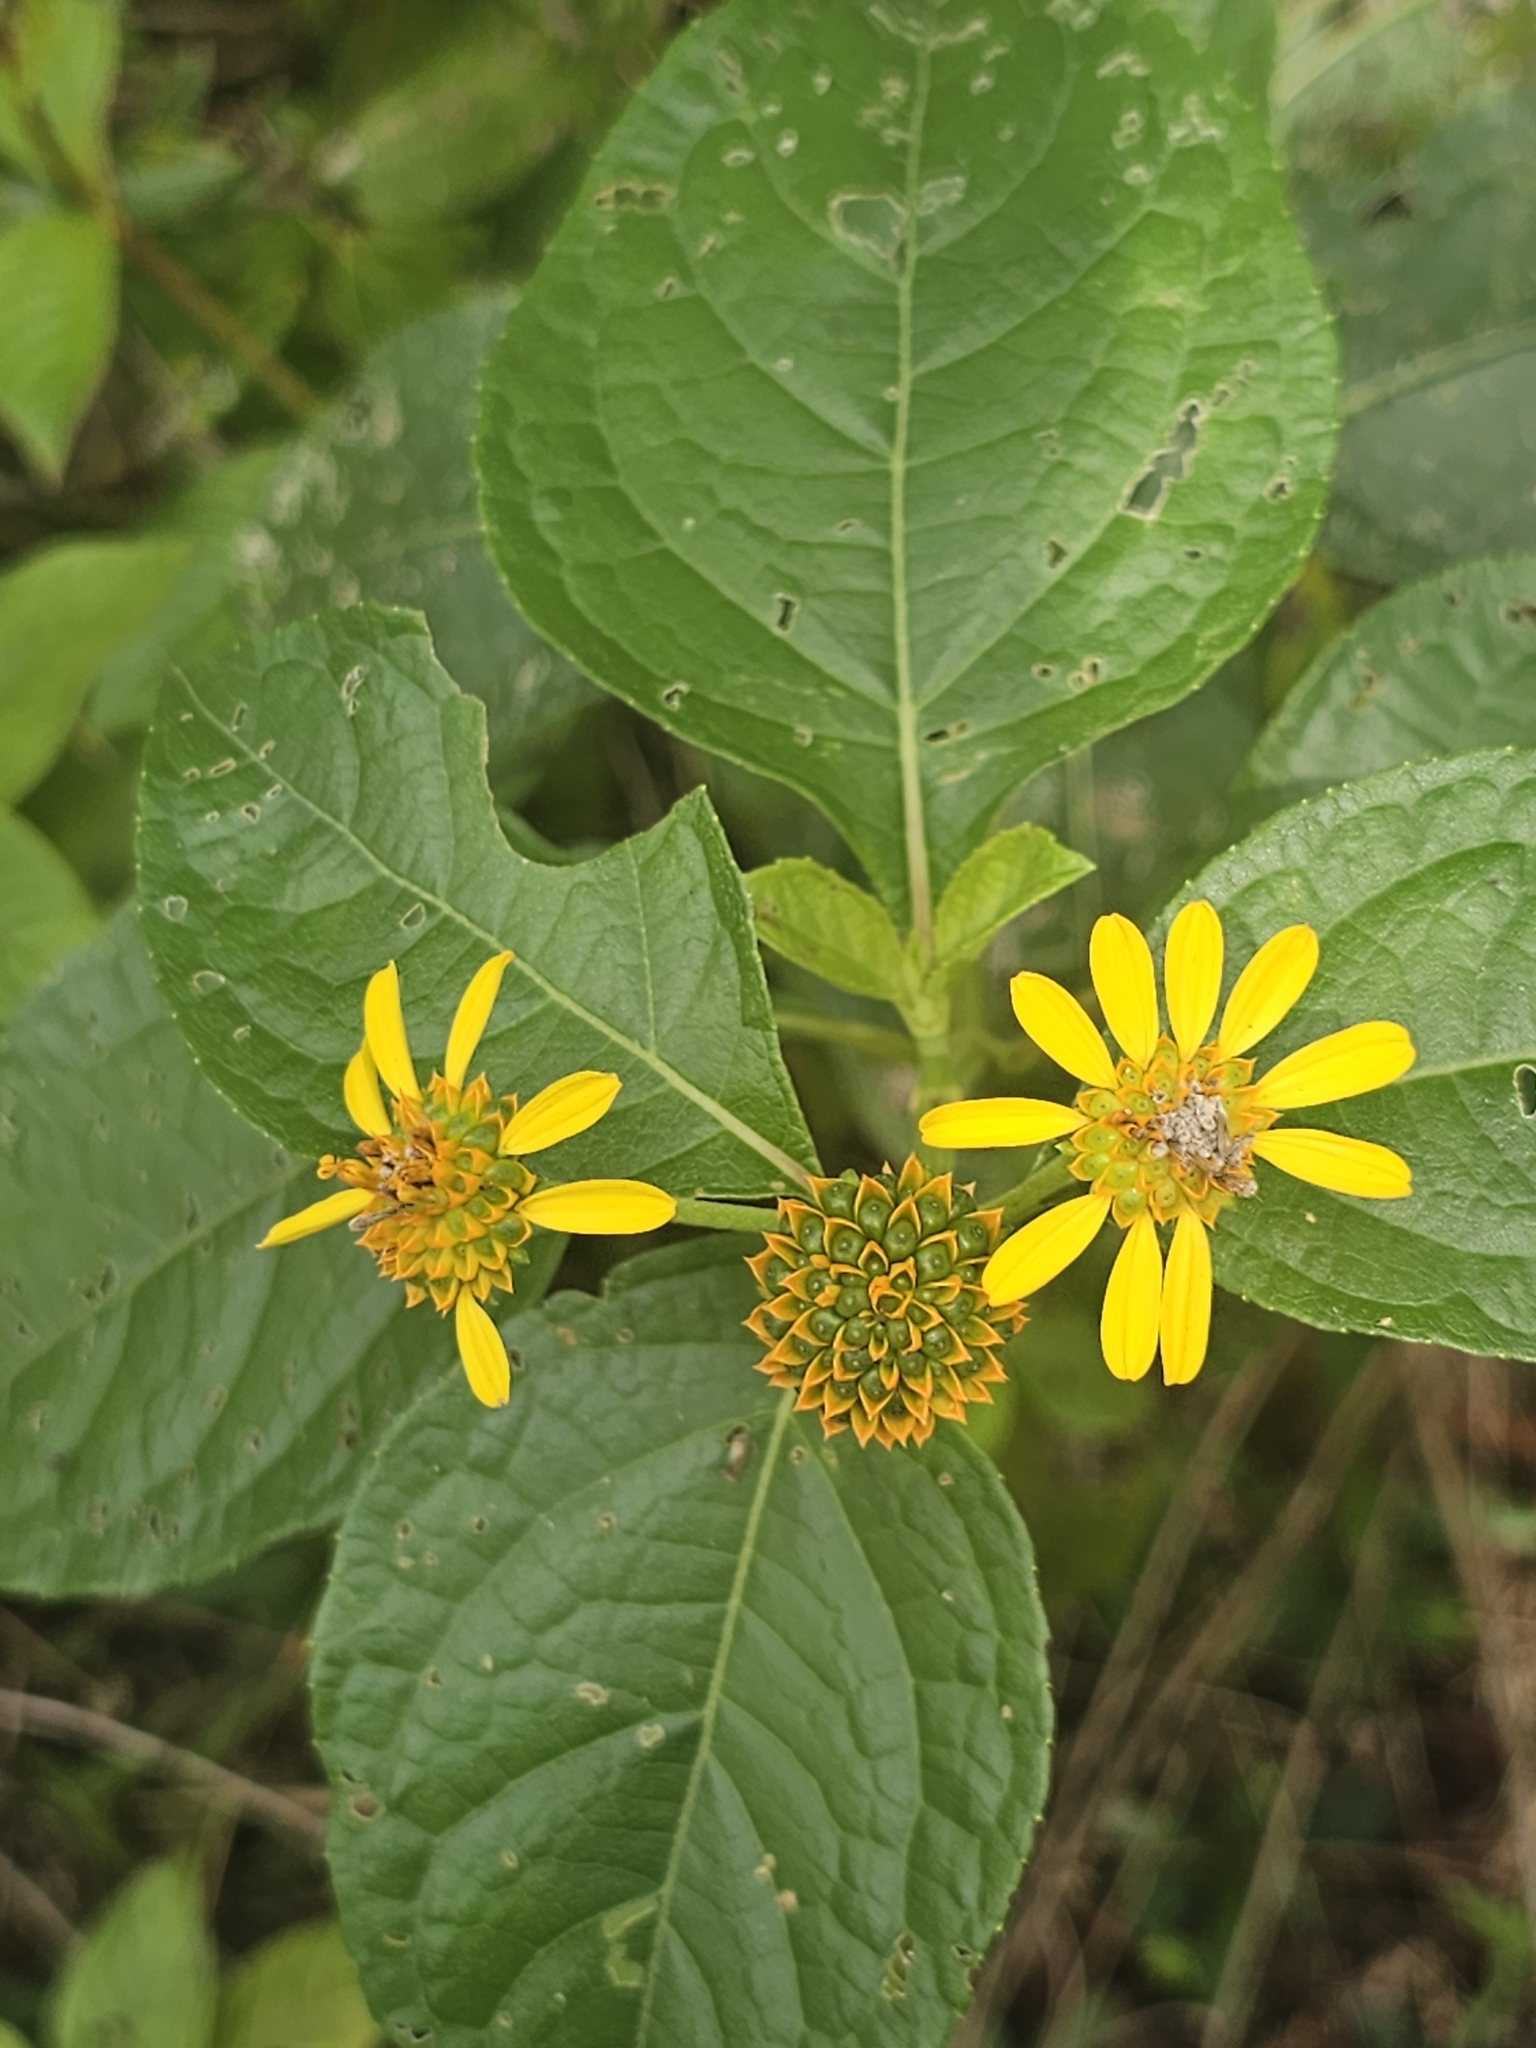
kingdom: Plantae
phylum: Tracheophyta
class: Magnoliopsida
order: Asterales
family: Asteraceae
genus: Tilesia
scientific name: Tilesia baccata
